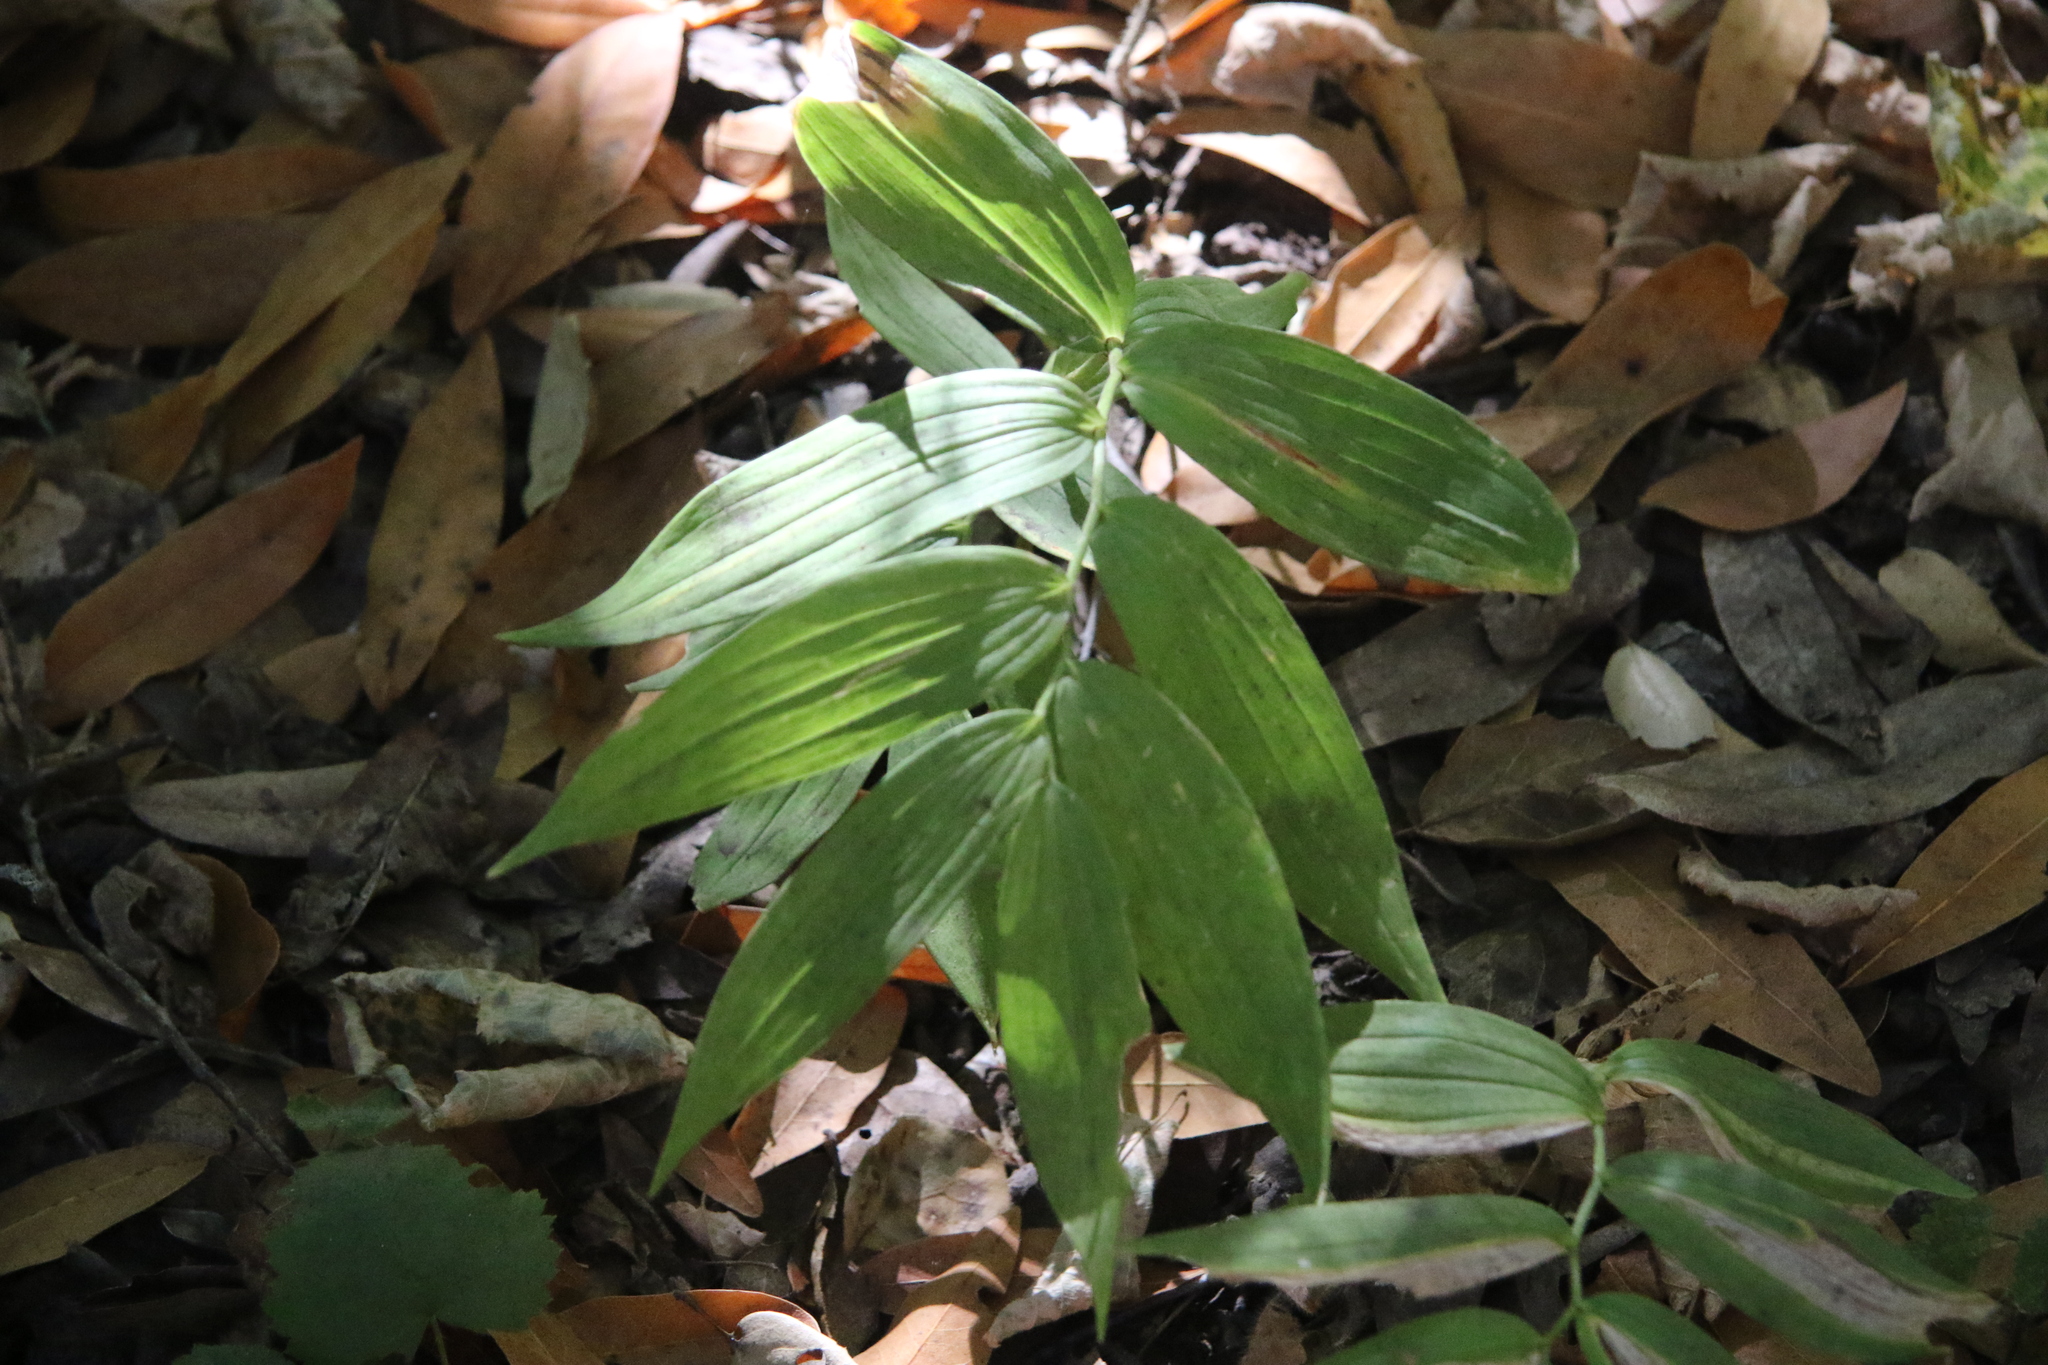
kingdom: Plantae
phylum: Tracheophyta
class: Liliopsida
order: Asparagales
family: Asparagaceae
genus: Maianthemum
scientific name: Maianthemum stellatum
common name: Little false solomon's seal
